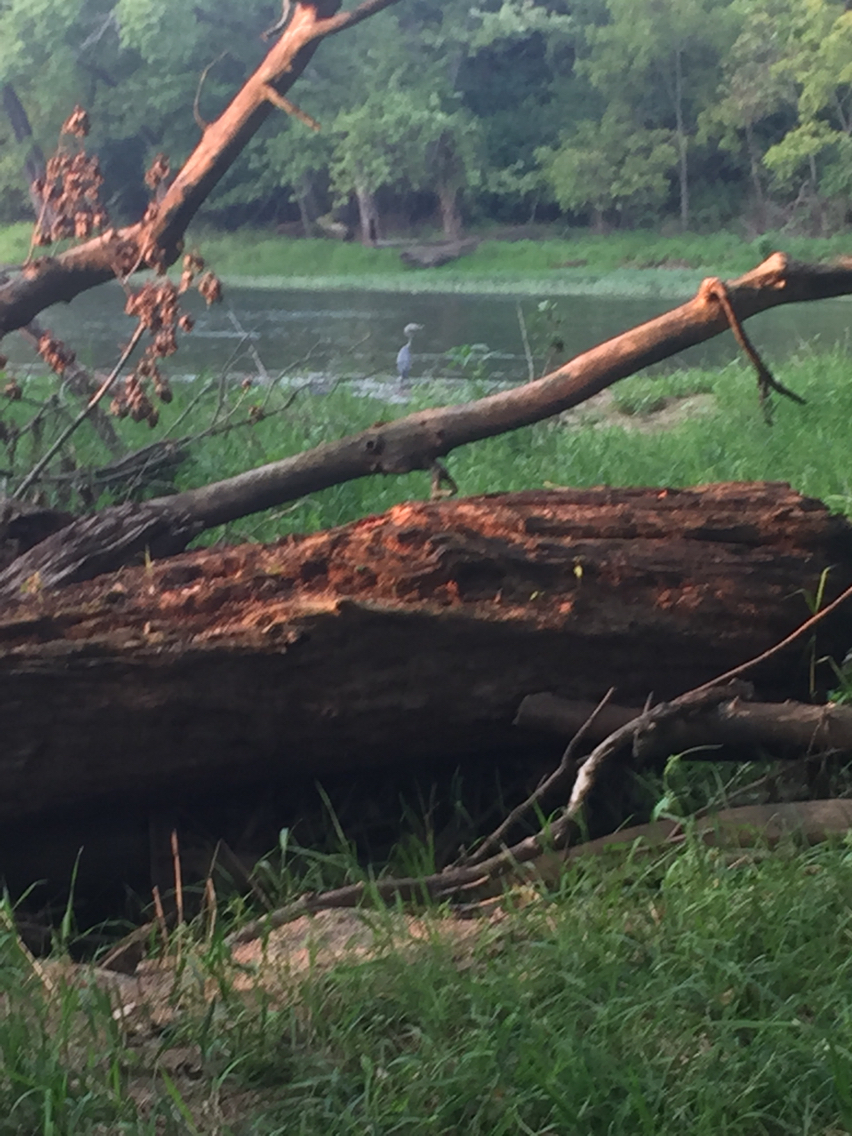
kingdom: Animalia
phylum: Chordata
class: Aves
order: Pelecaniformes
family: Ardeidae
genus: Ardea
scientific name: Ardea herodias
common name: Great blue heron
